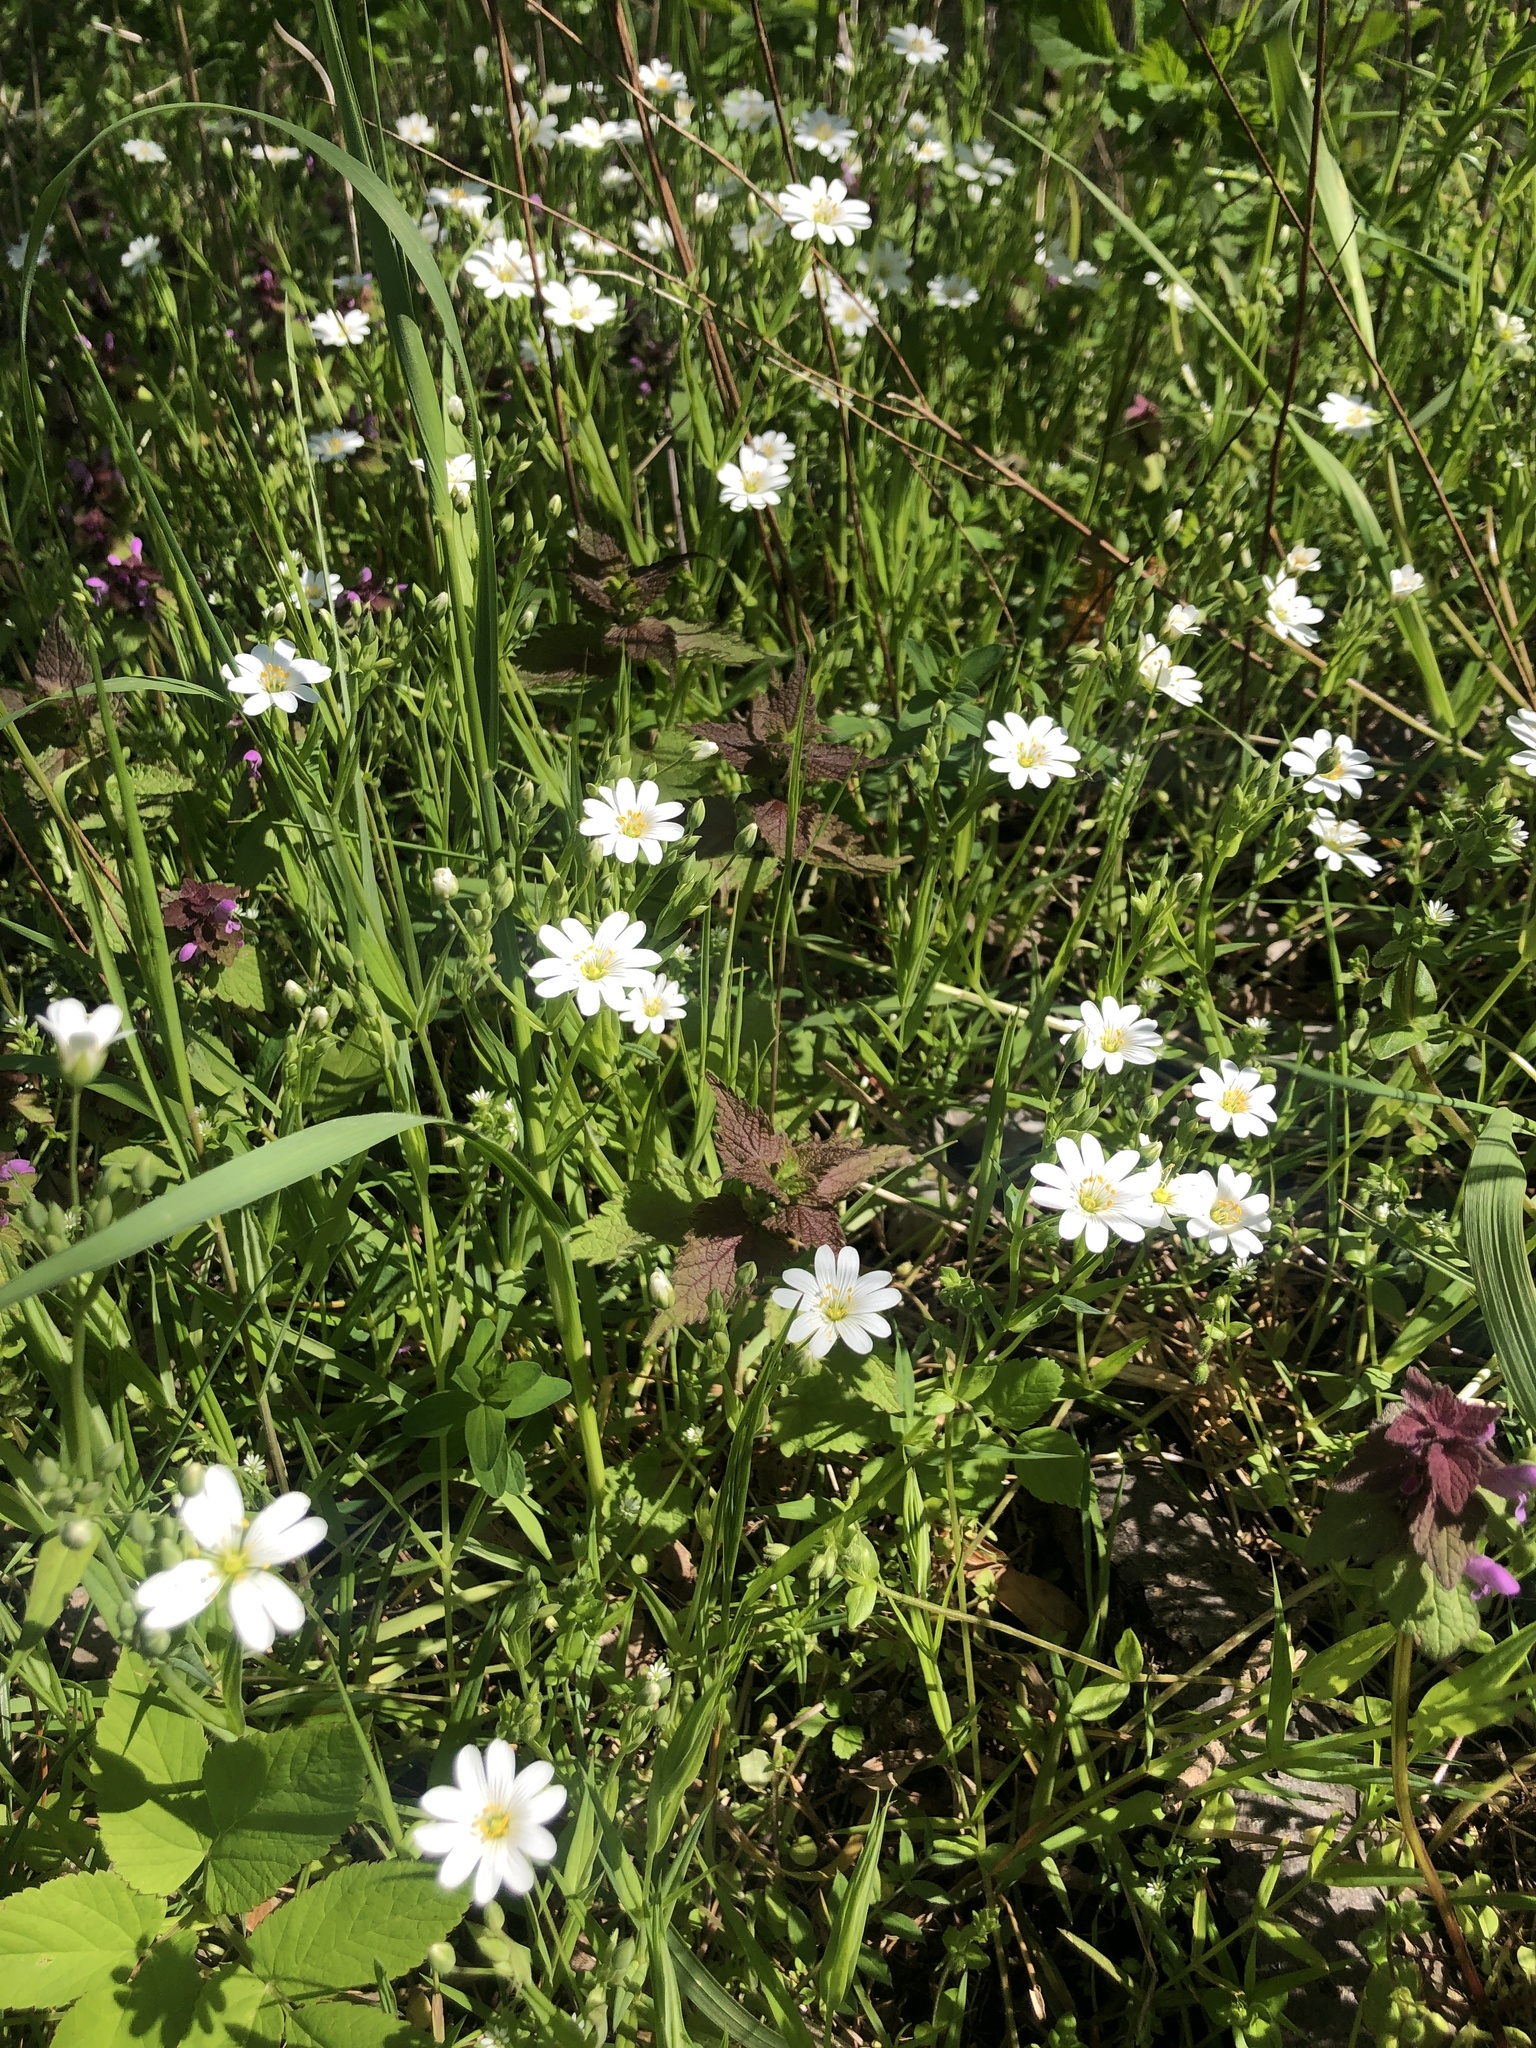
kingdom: Plantae
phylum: Tracheophyta
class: Magnoliopsida
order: Caryophyllales
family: Caryophyllaceae
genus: Rabelera
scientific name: Rabelera holostea
